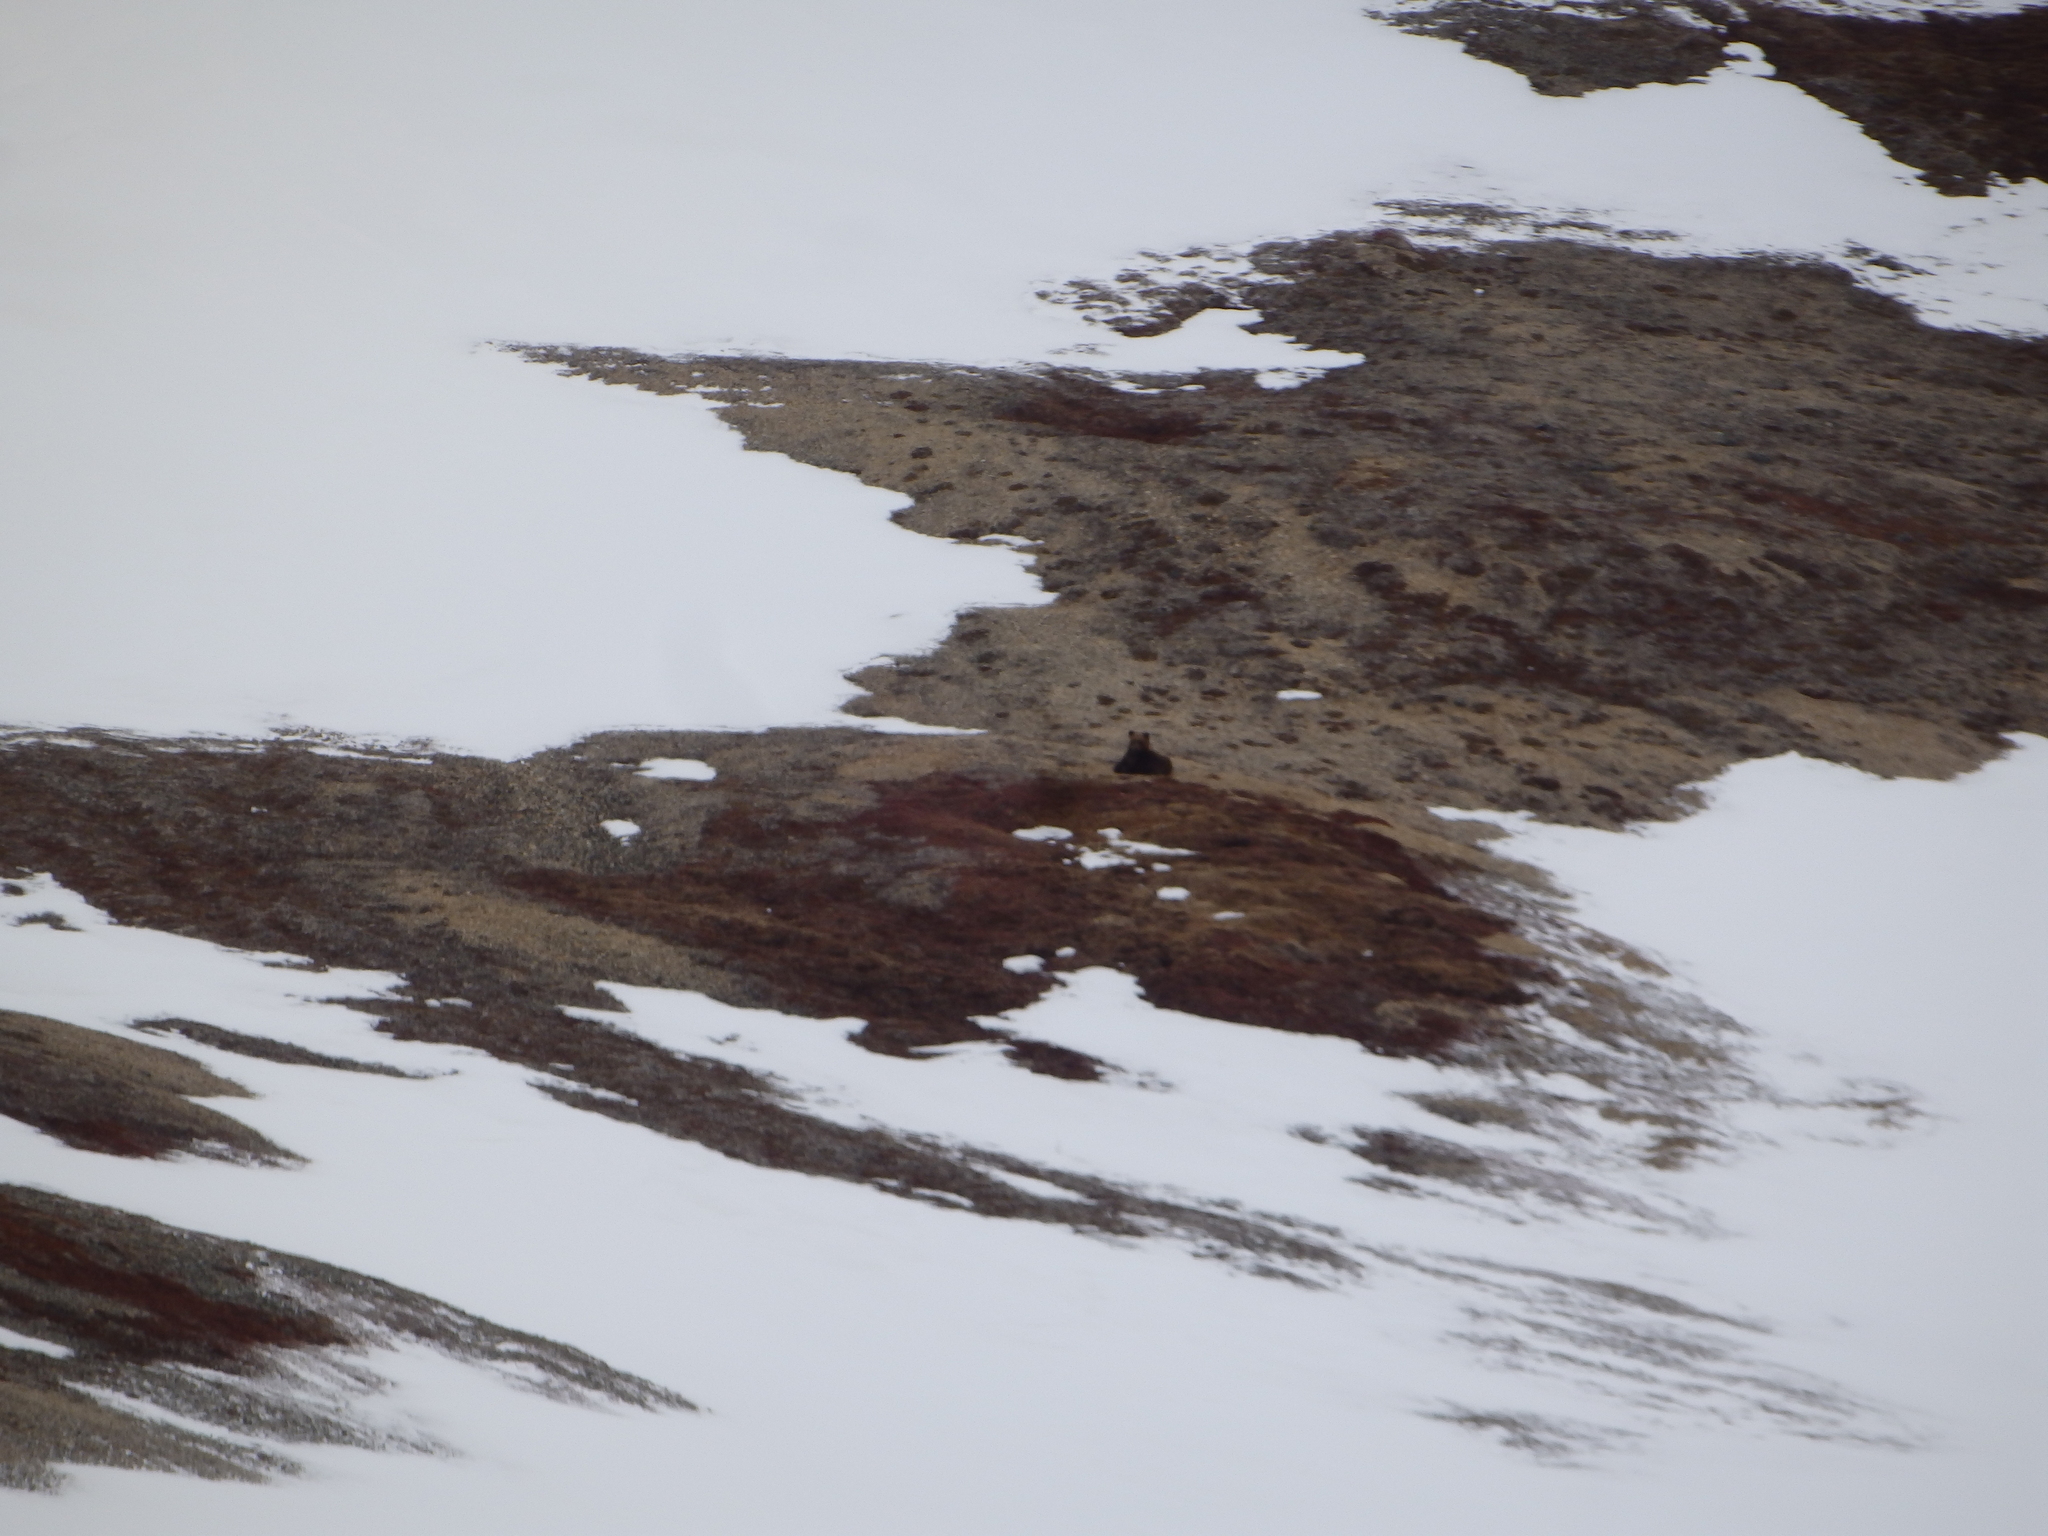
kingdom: Animalia
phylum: Chordata
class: Mammalia
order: Carnivora
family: Ursidae
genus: Ursus
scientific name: Ursus arctos
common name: Brown bear
